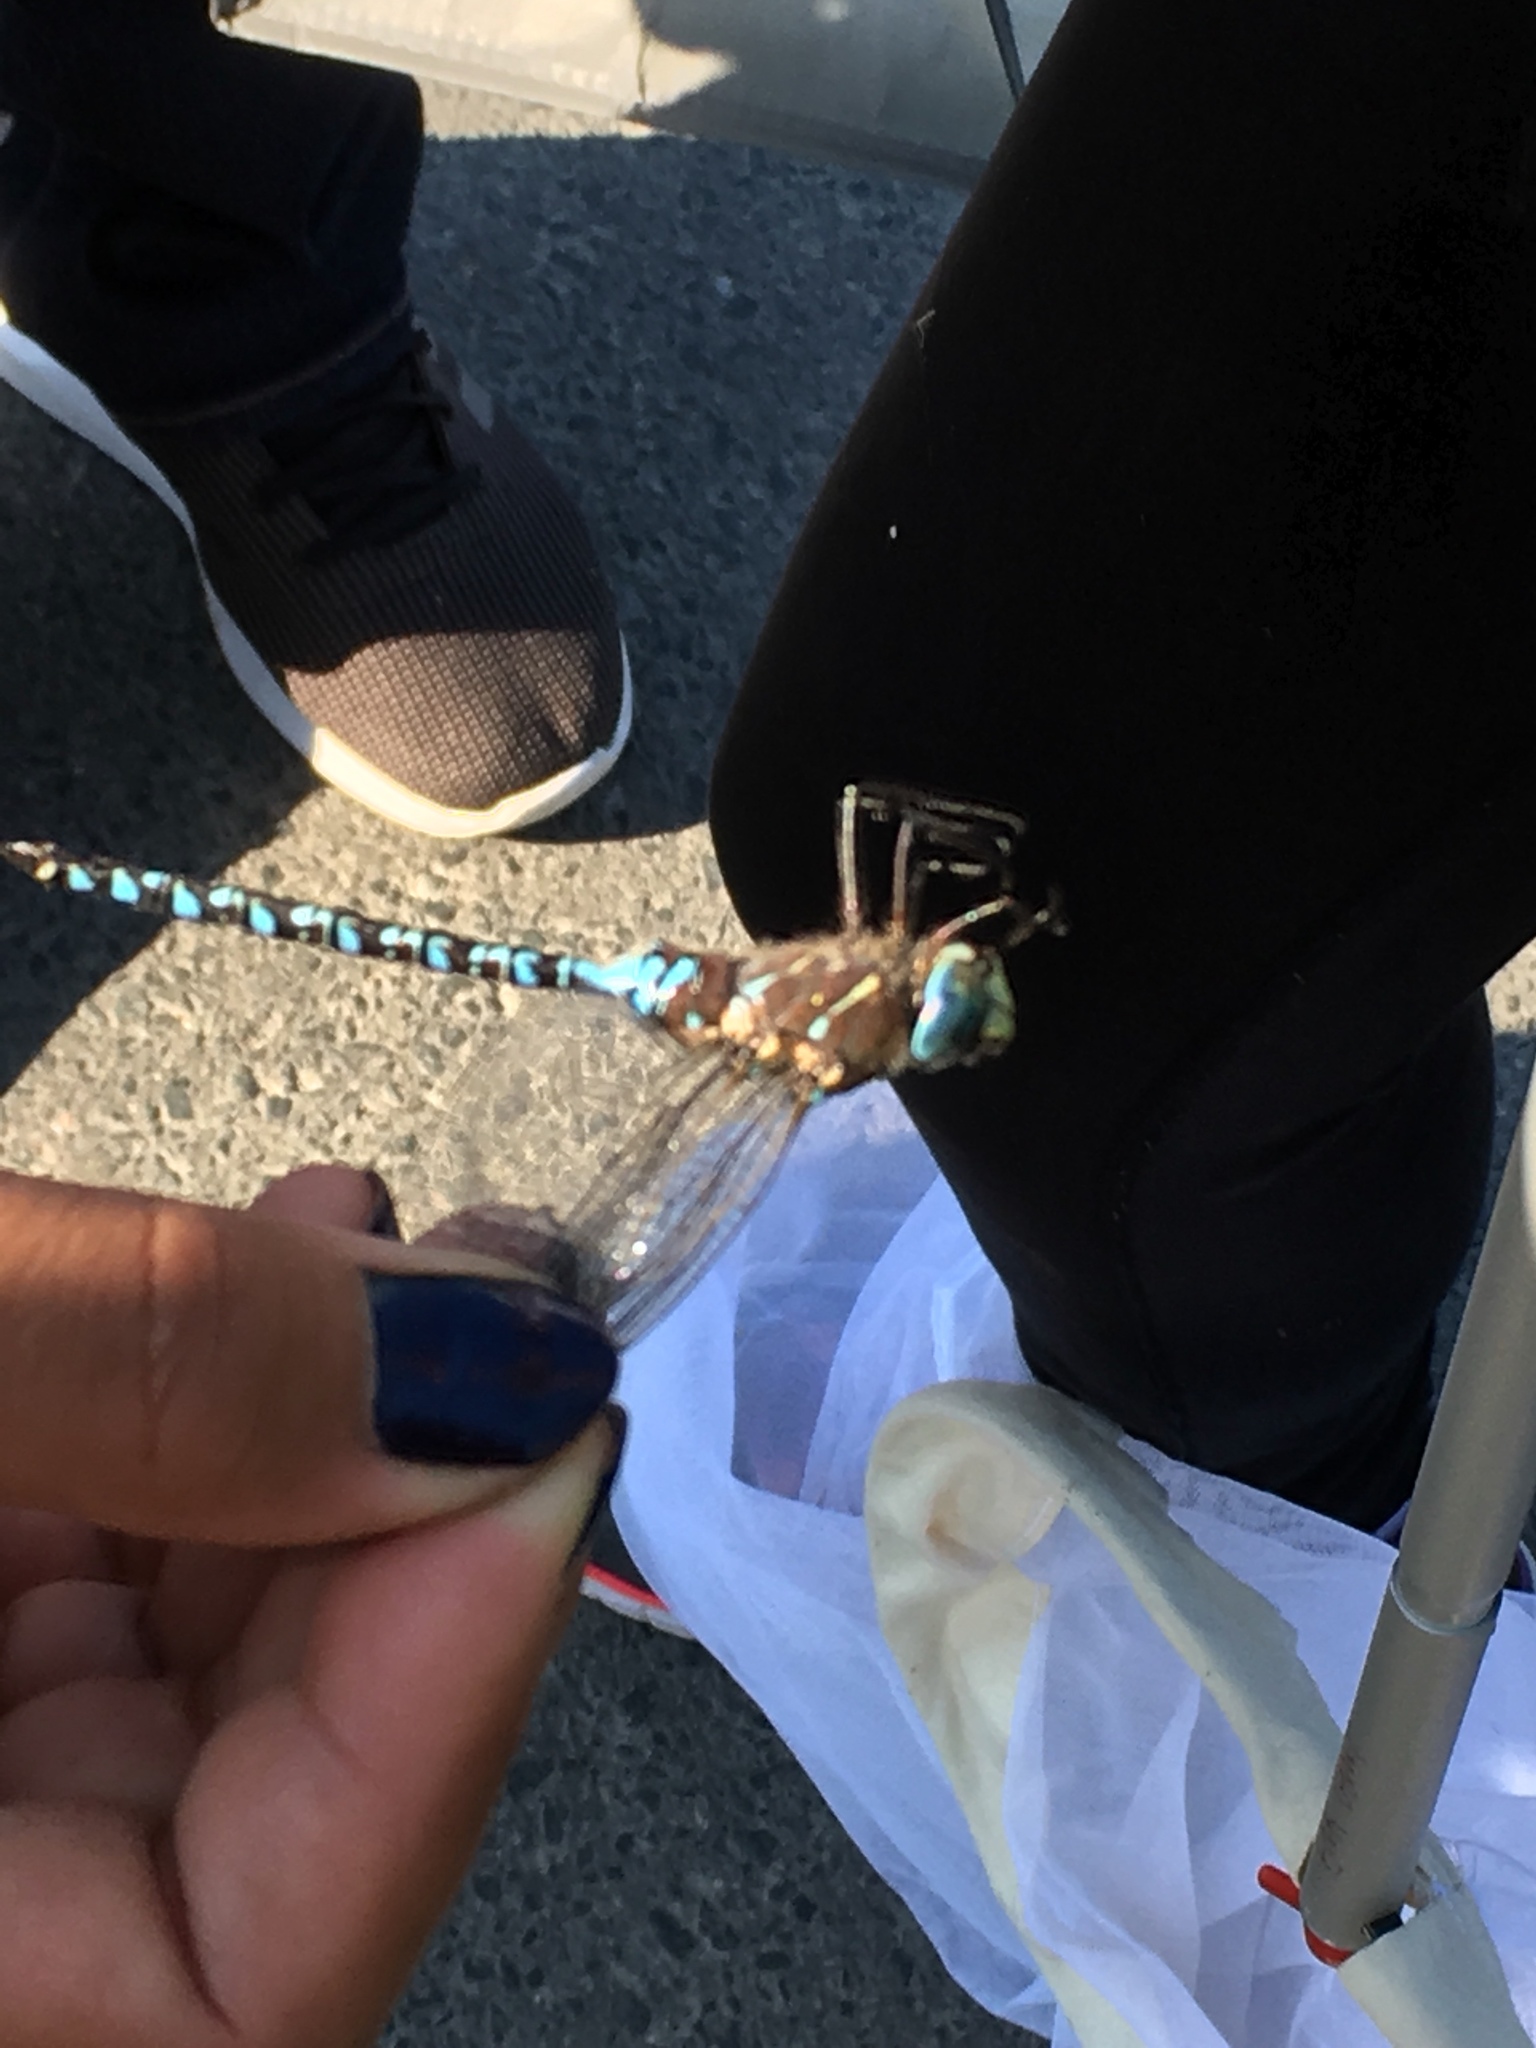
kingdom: Animalia
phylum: Arthropoda
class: Insecta
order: Odonata
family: Aeshnidae
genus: Aeshna
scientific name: Aeshna interrupta
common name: Variable darner
